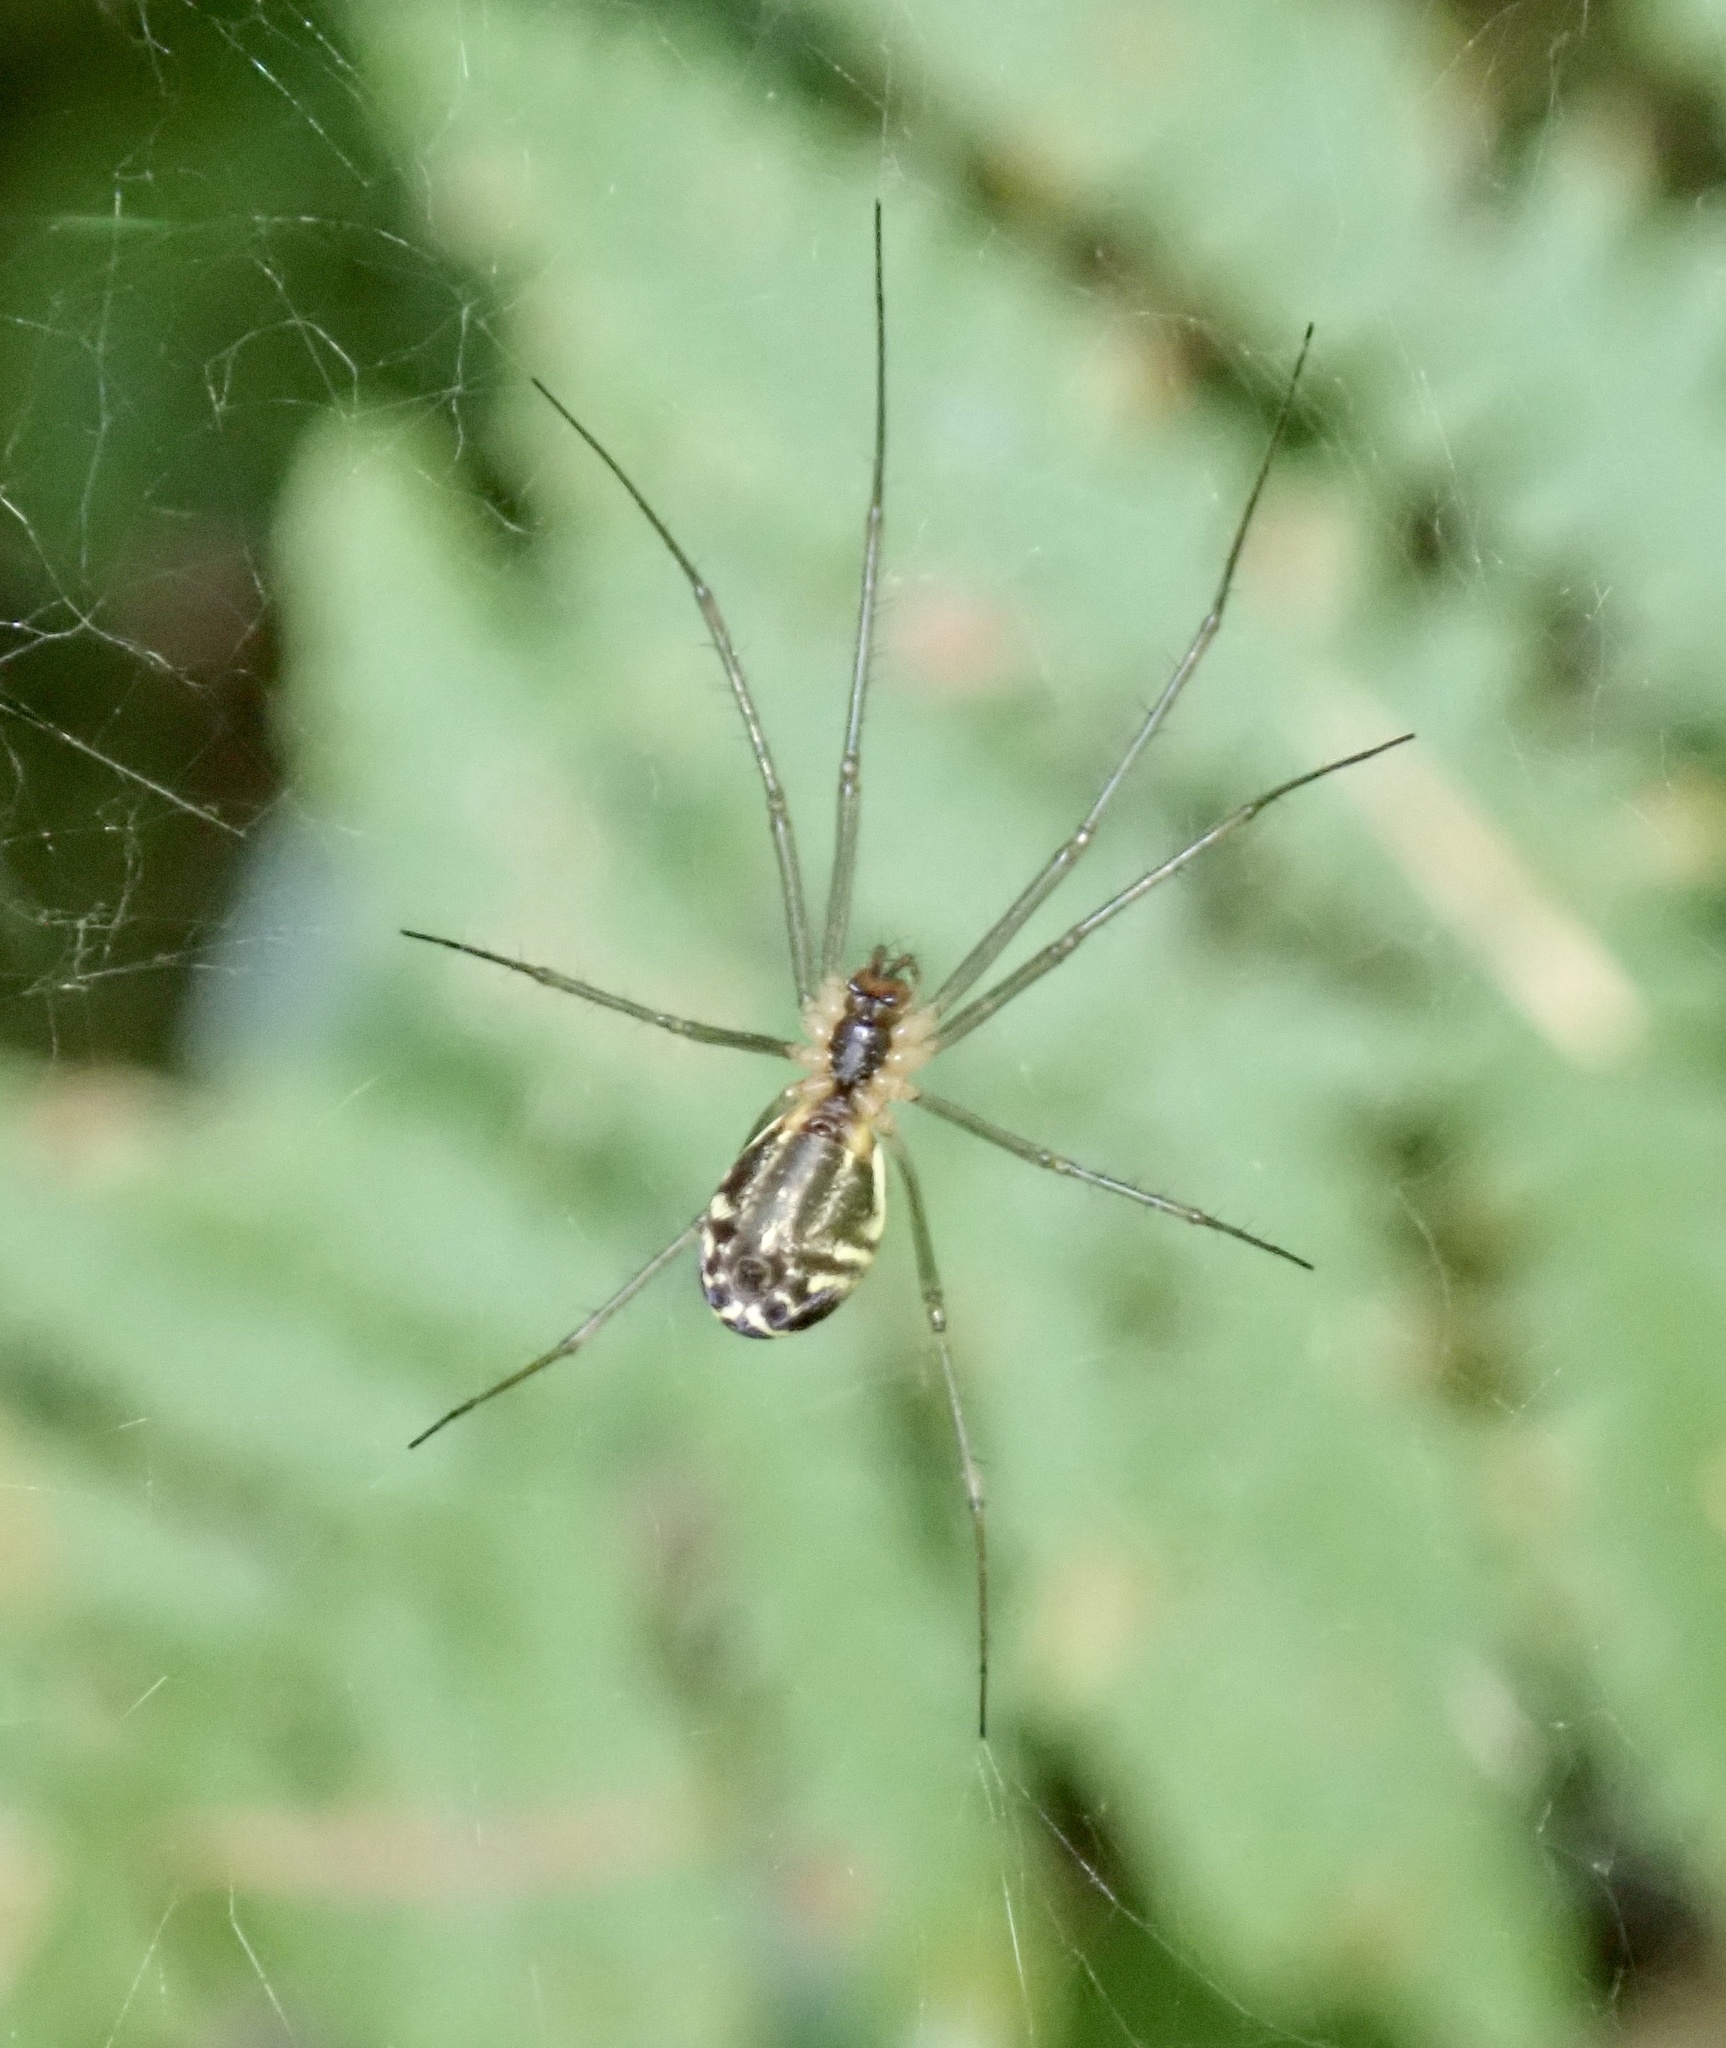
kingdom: Animalia
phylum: Arthropoda
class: Arachnida
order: Araneae
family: Linyphiidae
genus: Neriene
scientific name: Neriene litigiosa
